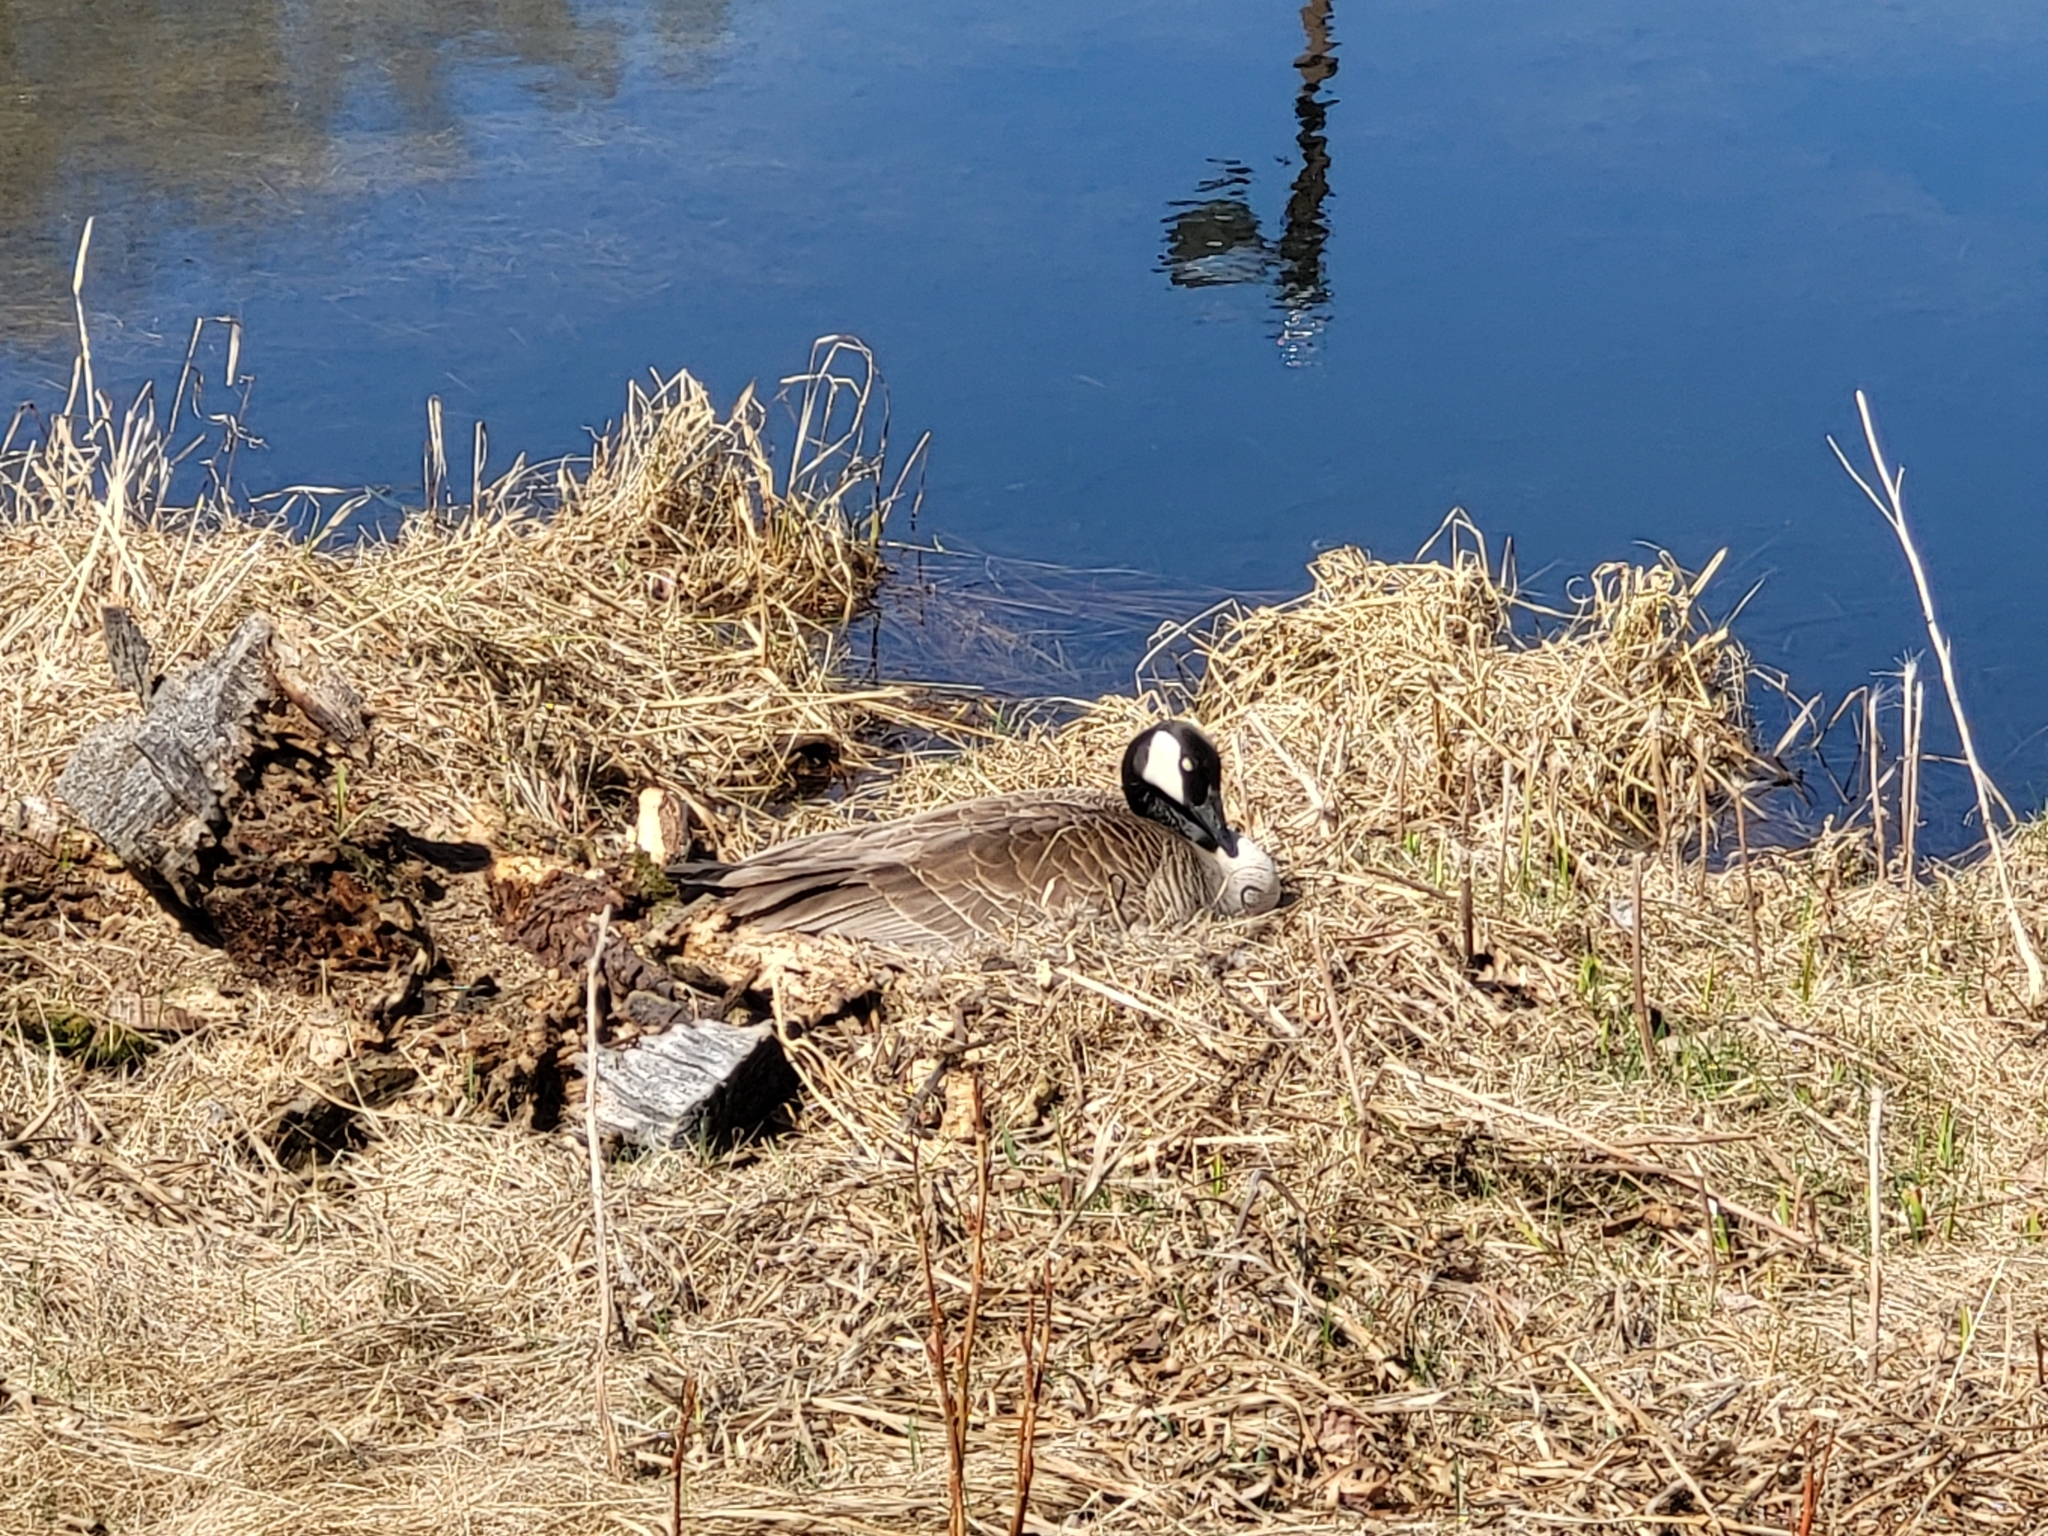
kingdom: Animalia
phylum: Chordata
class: Aves
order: Anseriformes
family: Anatidae
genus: Branta
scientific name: Branta canadensis
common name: Canada goose
